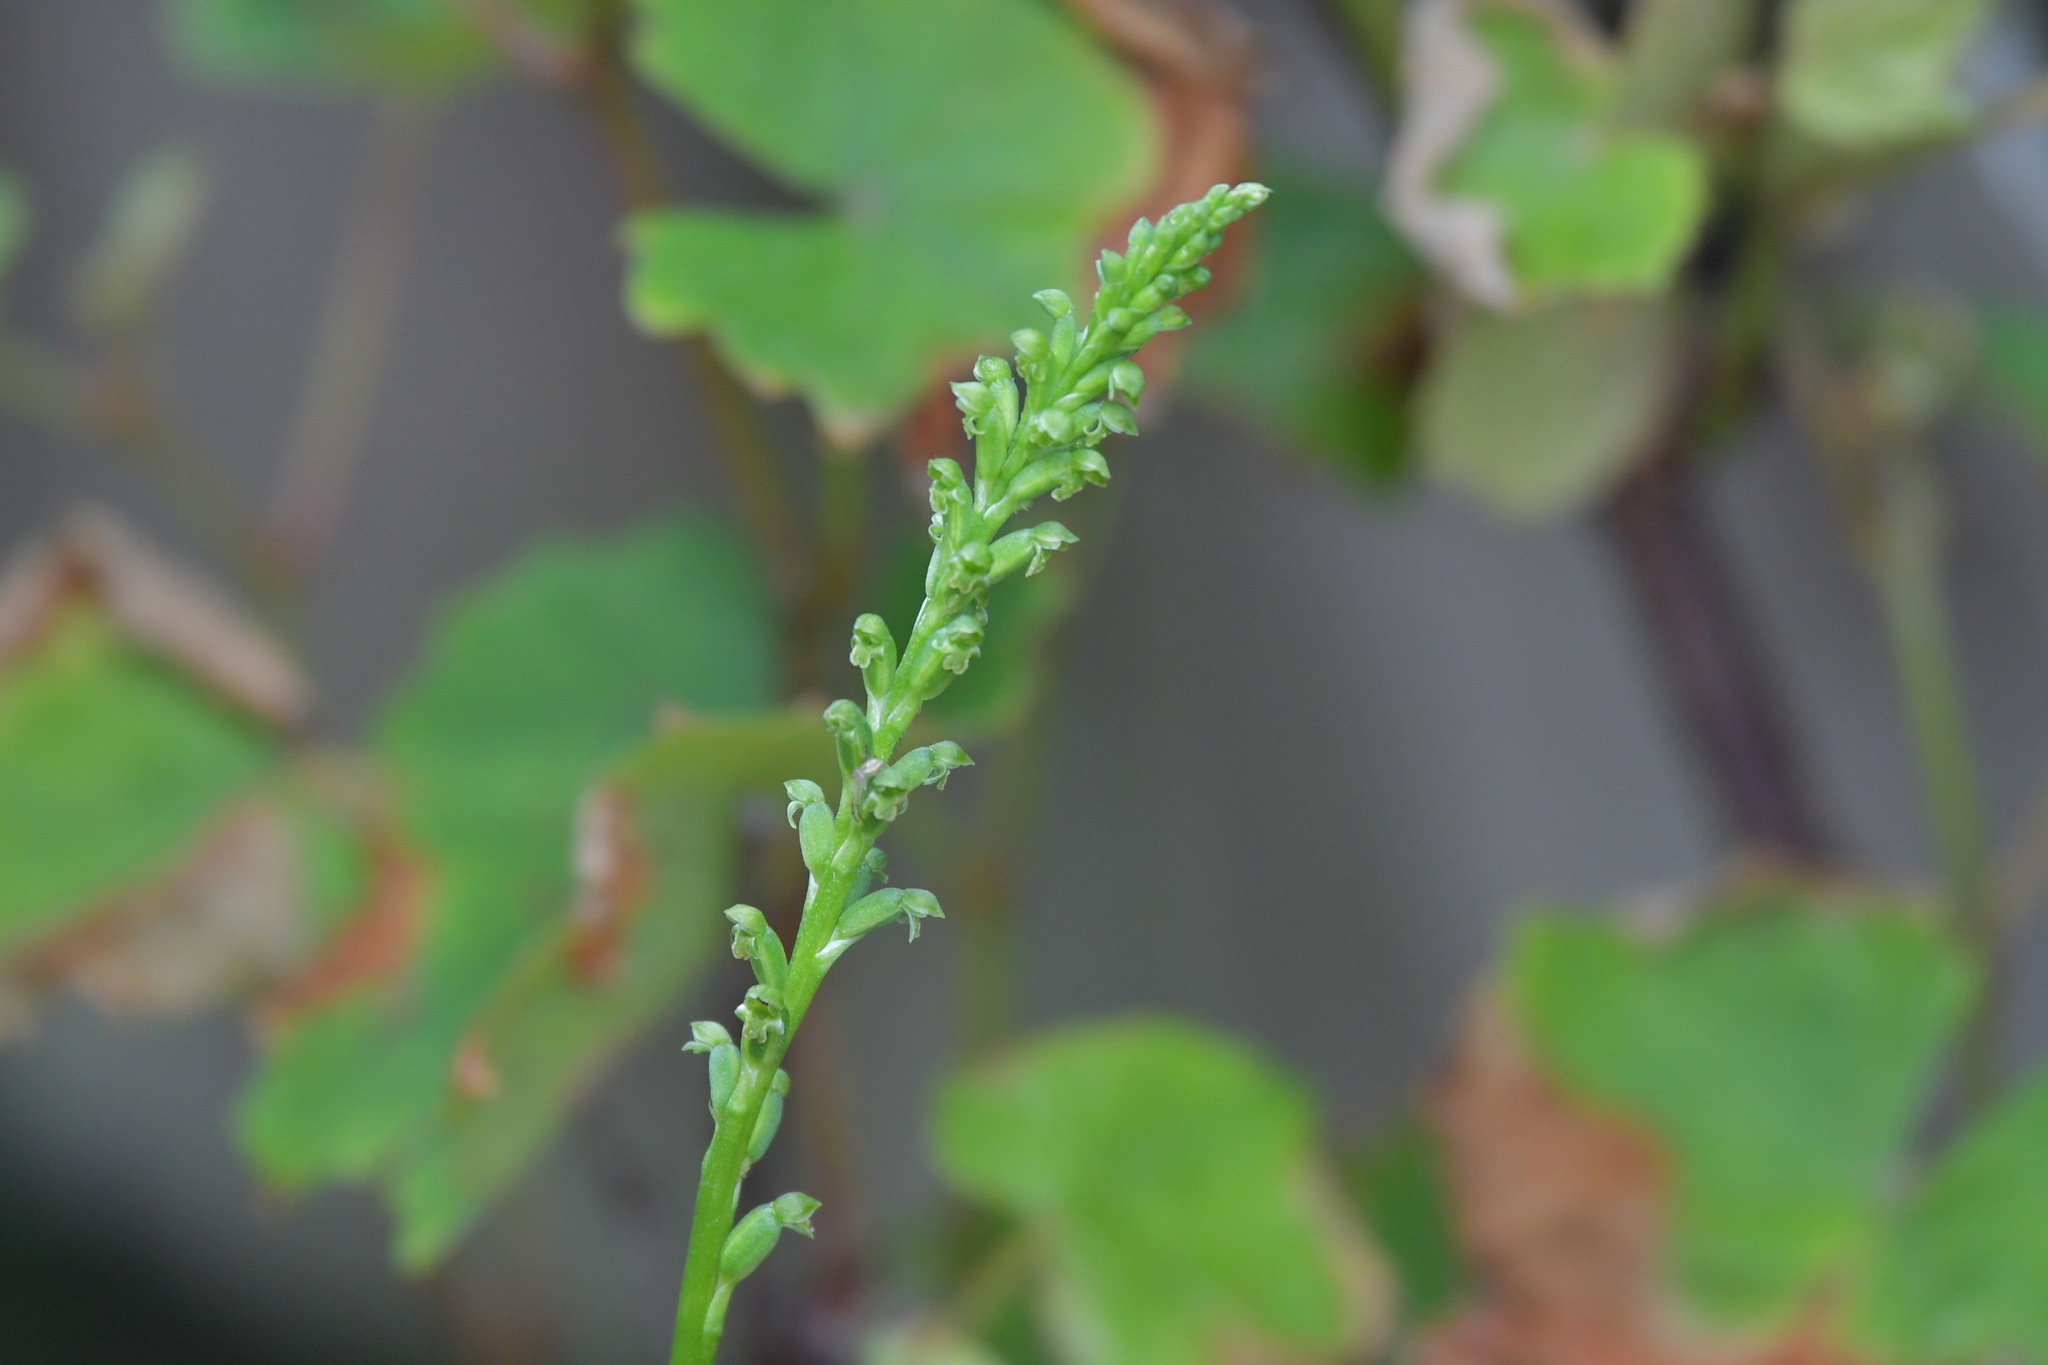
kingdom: Plantae
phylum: Tracheophyta
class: Liliopsida
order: Asparagales
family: Orchidaceae
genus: Microtis
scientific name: Microtis unifolia
